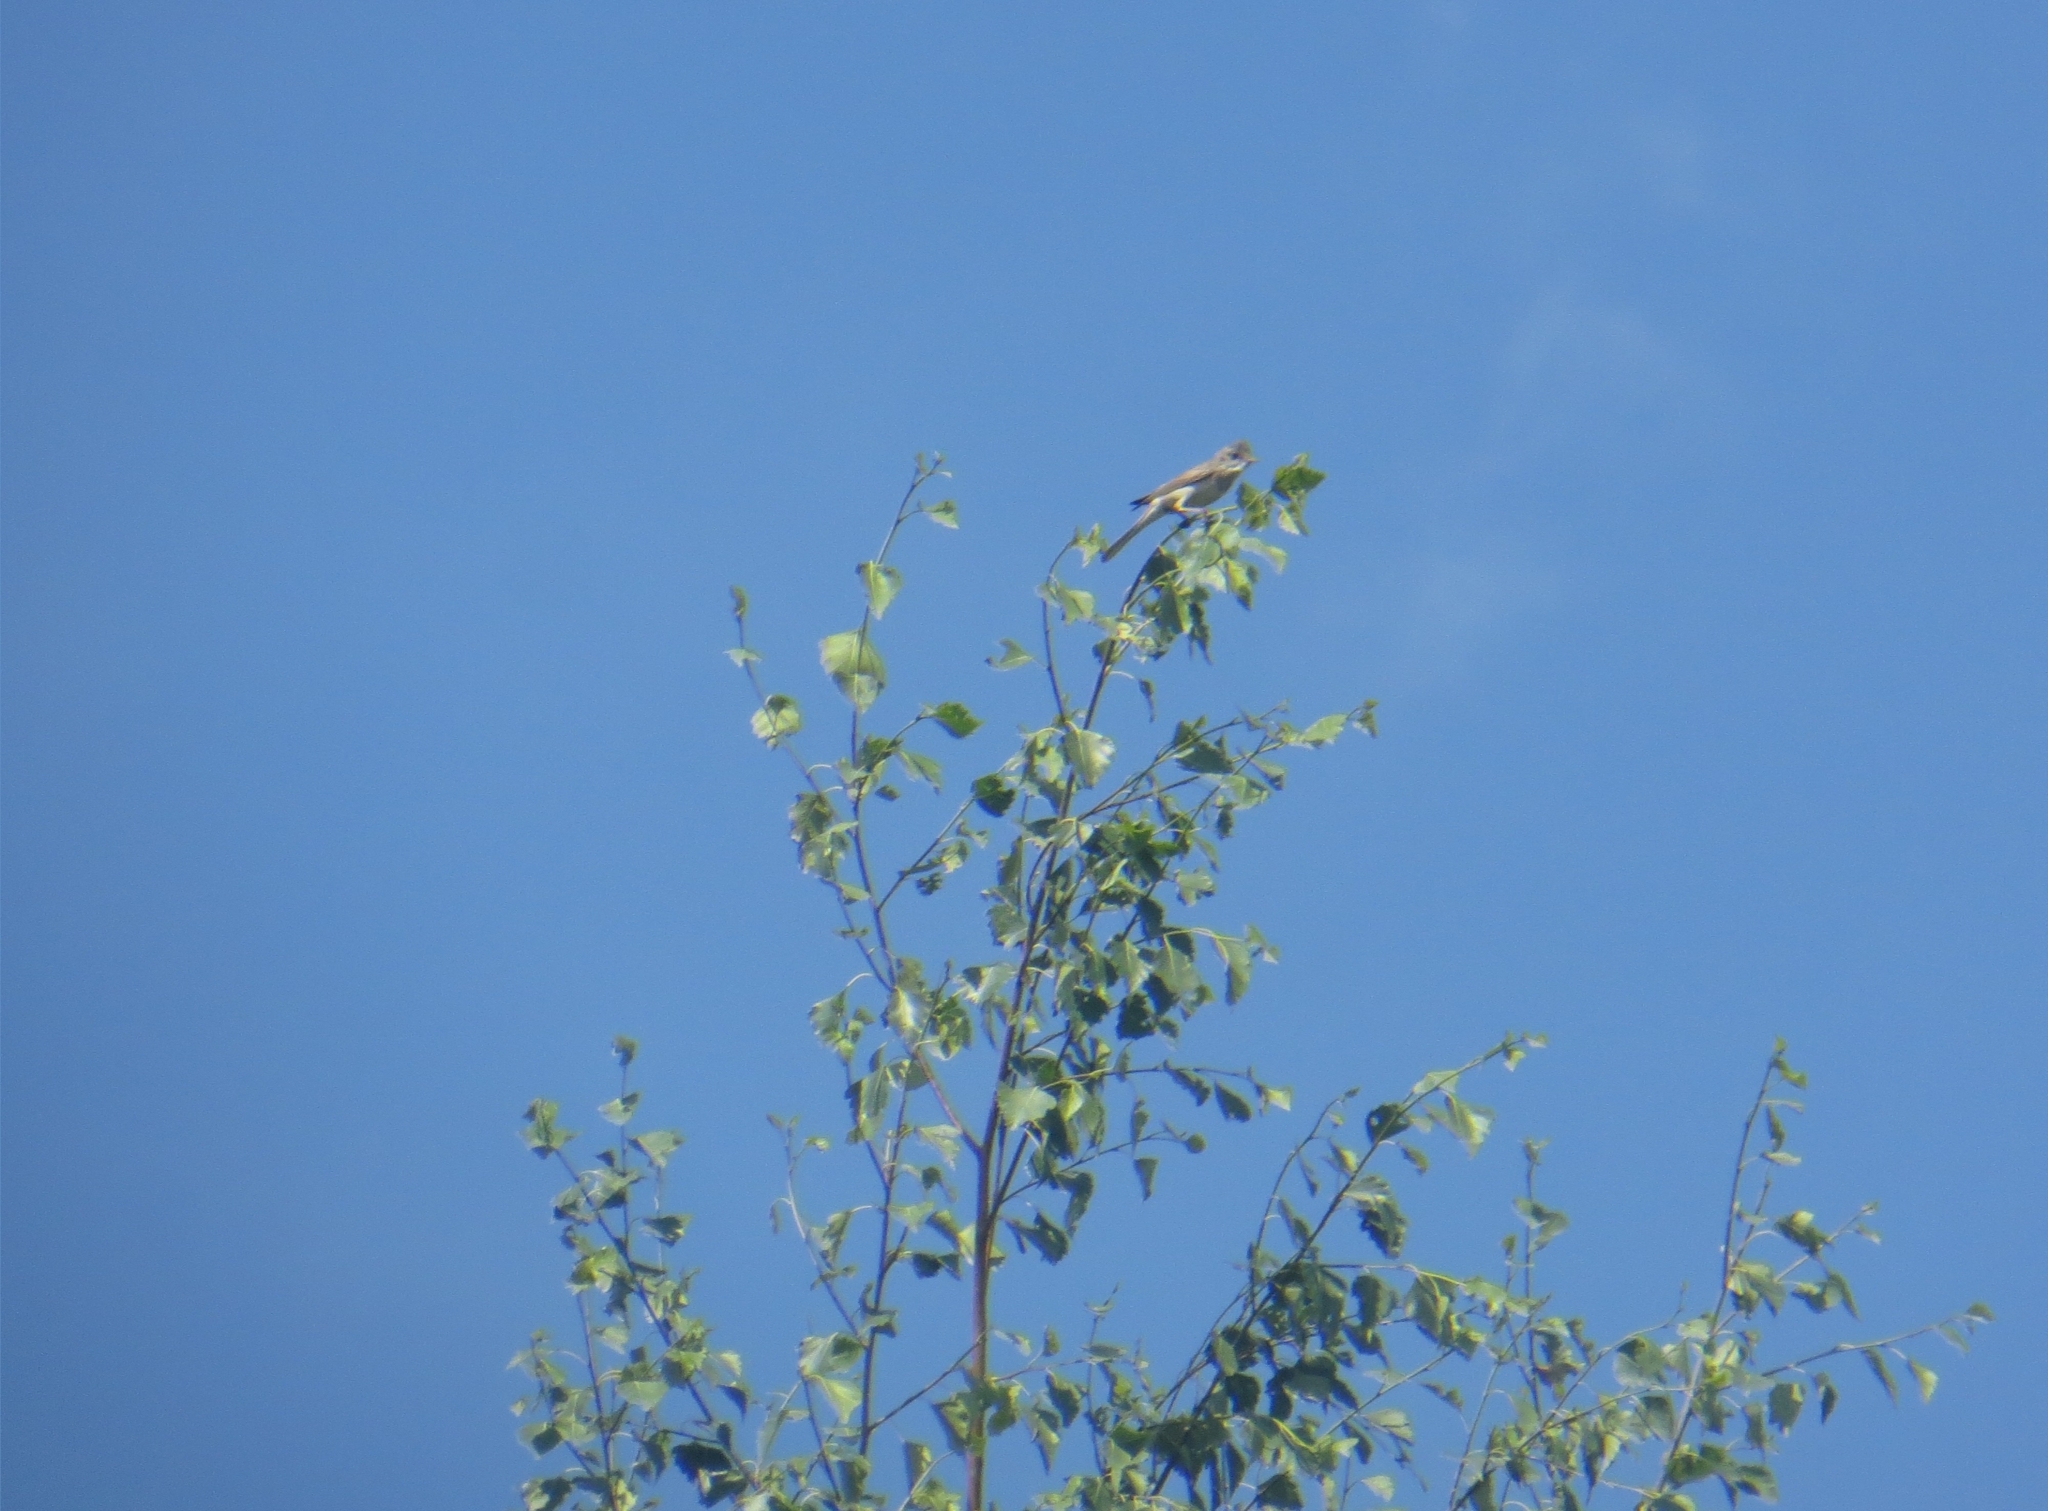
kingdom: Animalia
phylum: Chordata
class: Aves
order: Passeriformes
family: Sylviidae
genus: Sylvia
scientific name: Sylvia communis
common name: Common whitethroat
